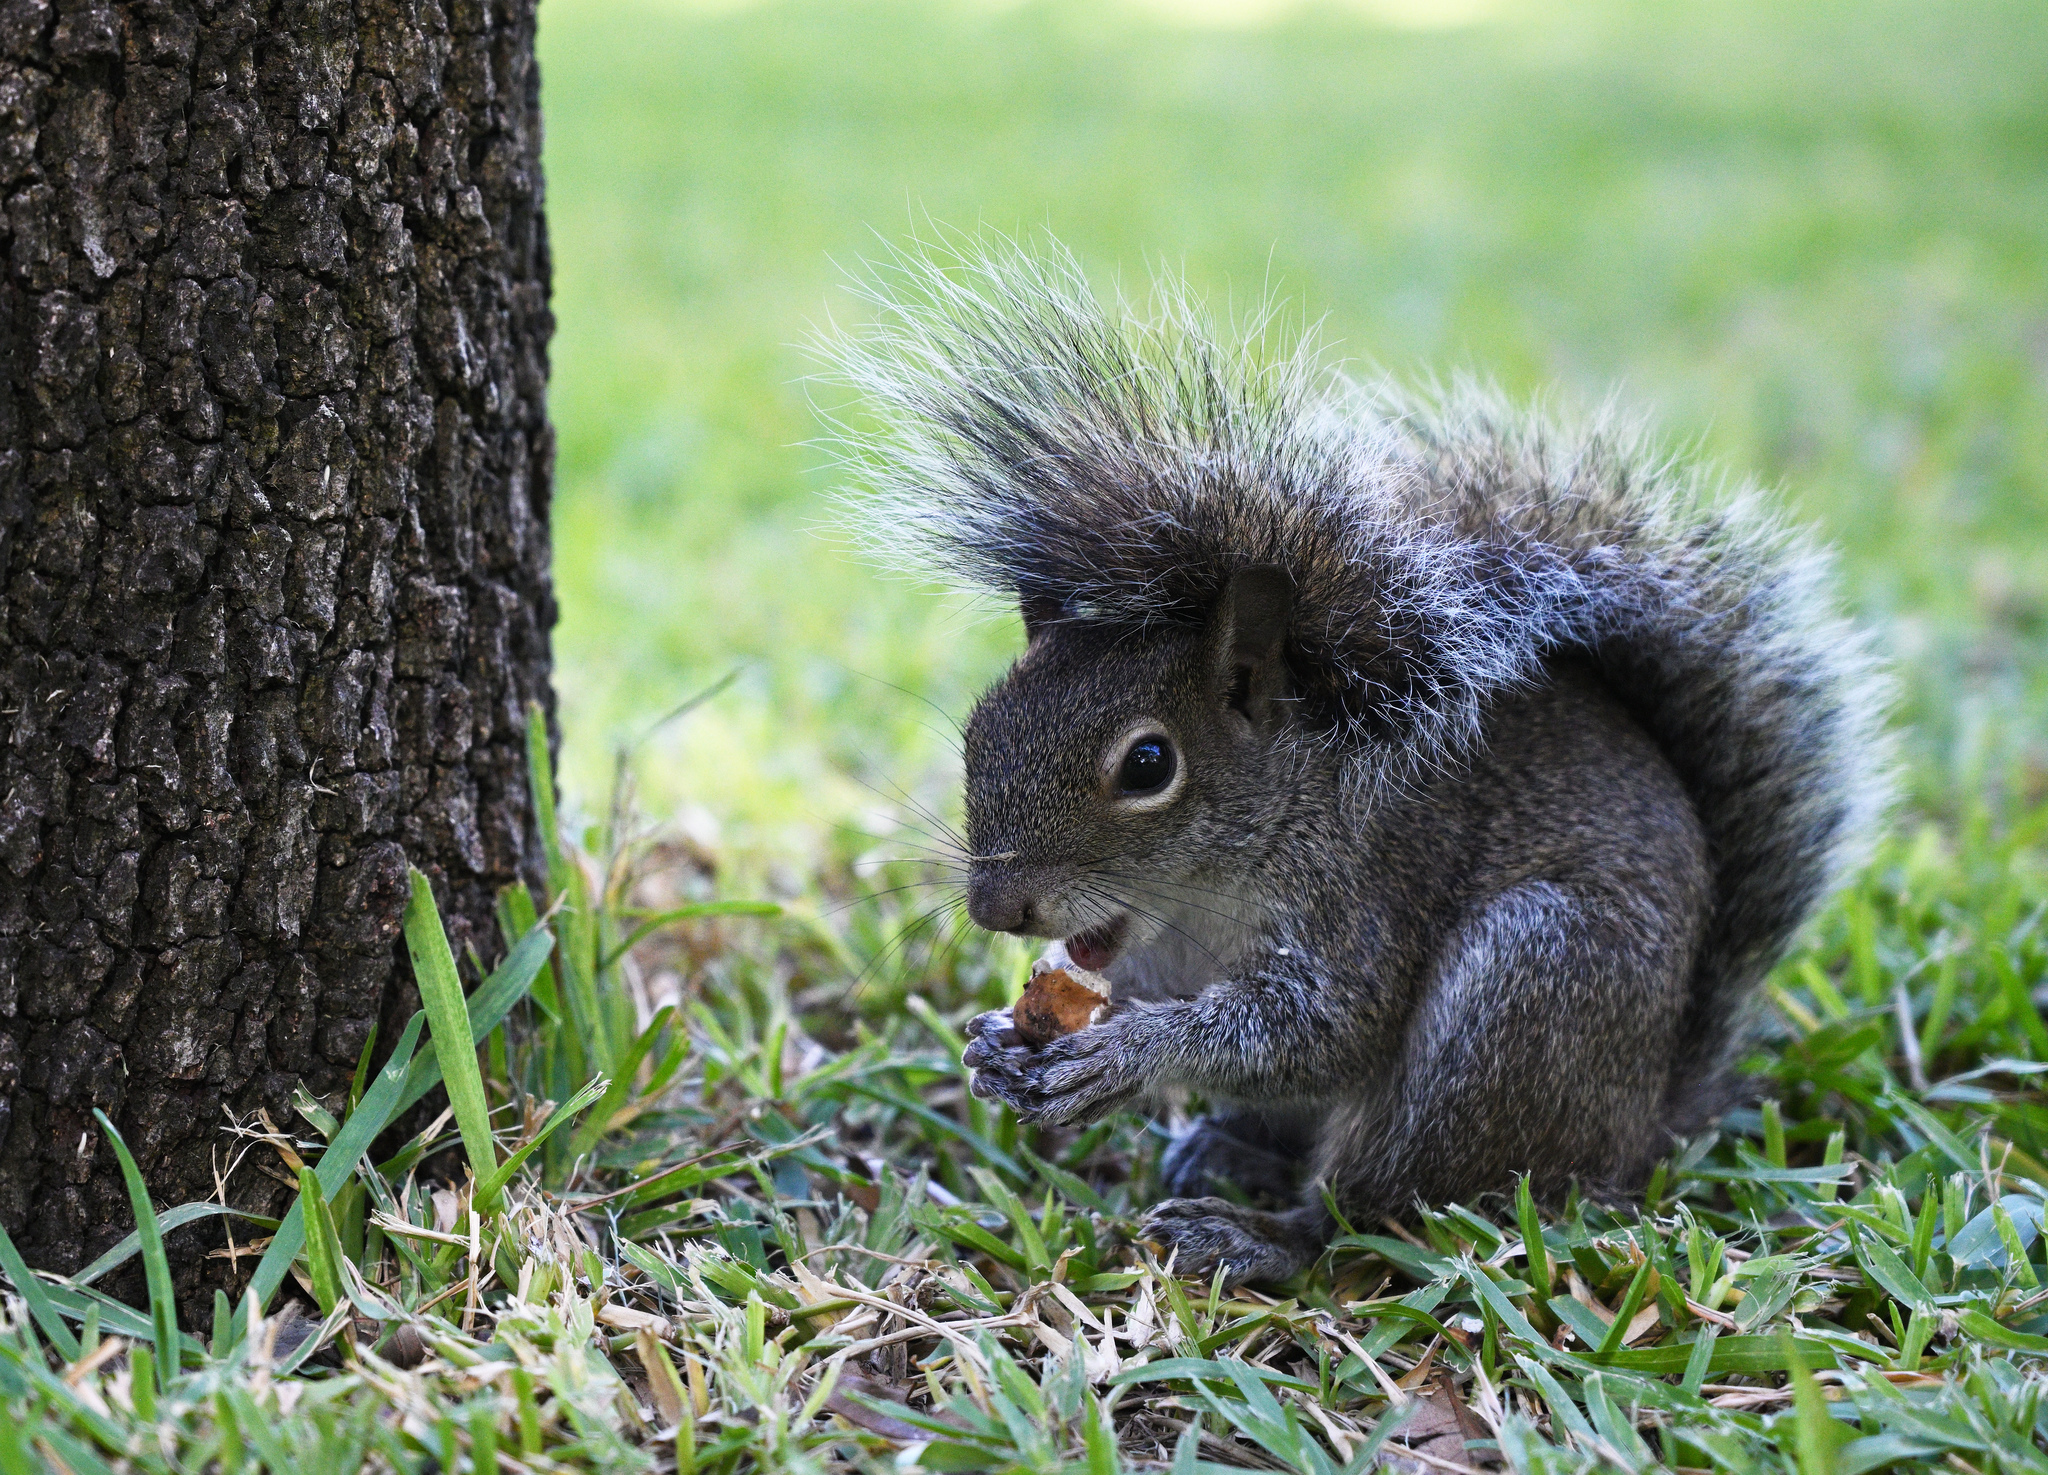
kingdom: Animalia
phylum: Chordata
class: Mammalia
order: Rodentia
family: Sciuridae
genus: Sciurus
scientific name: Sciurus alleni
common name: Allen's squirrel
